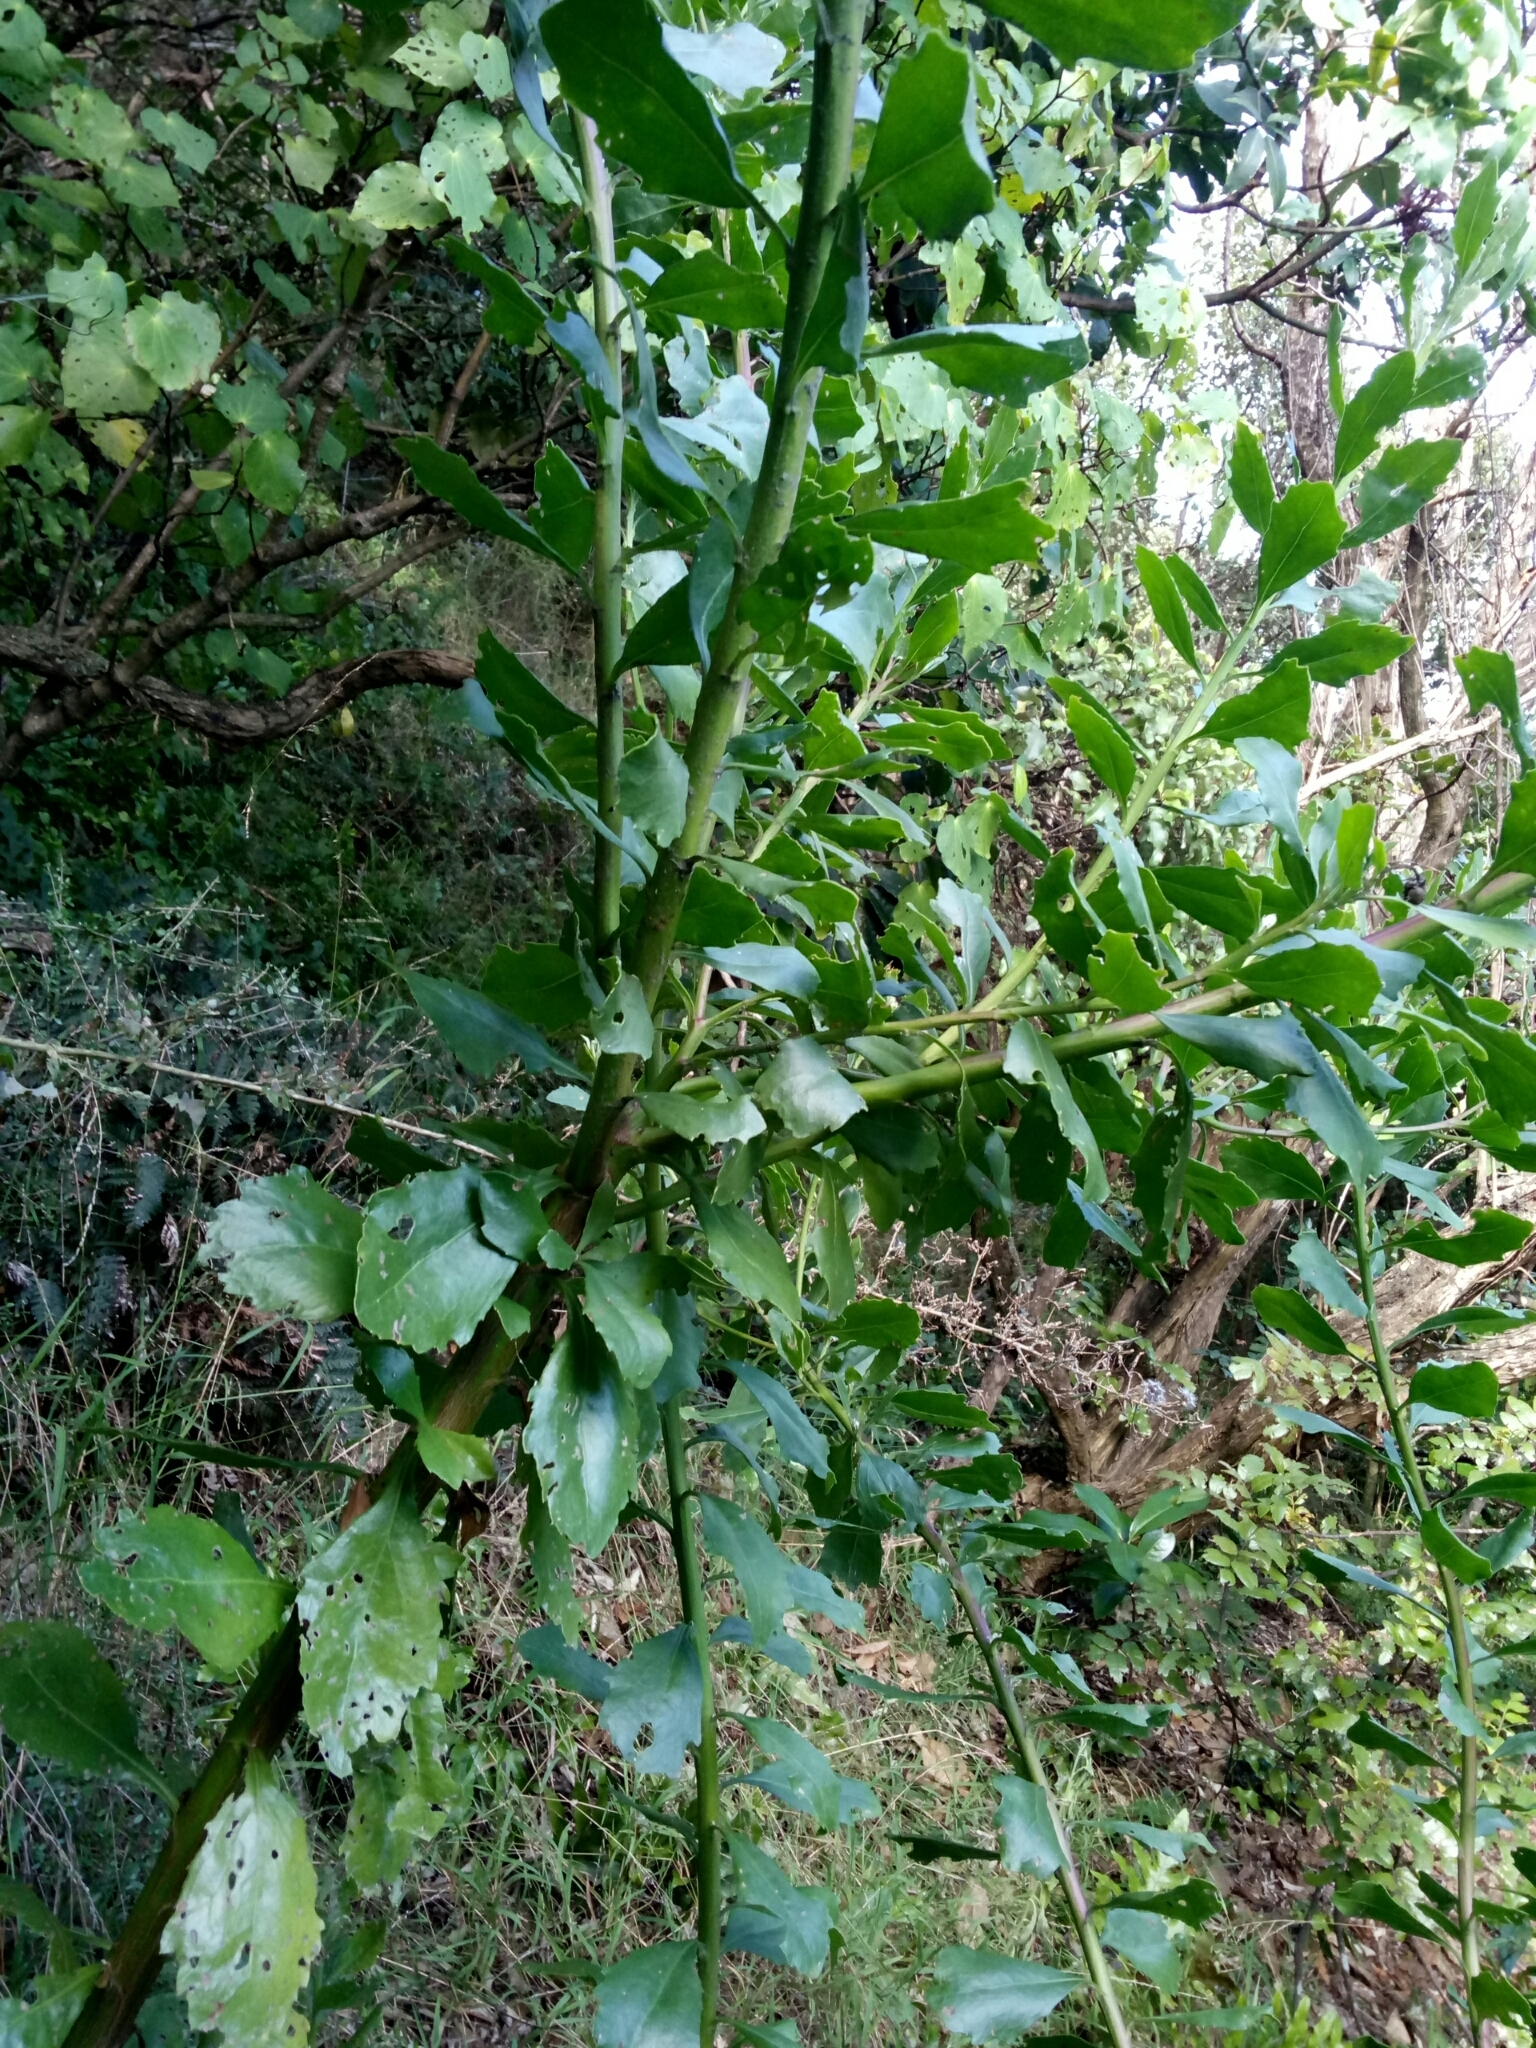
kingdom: Plantae
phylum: Tracheophyta
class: Magnoliopsida
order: Asterales
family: Asteraceae
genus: Osteospermum
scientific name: Osteospermum moniliferum
